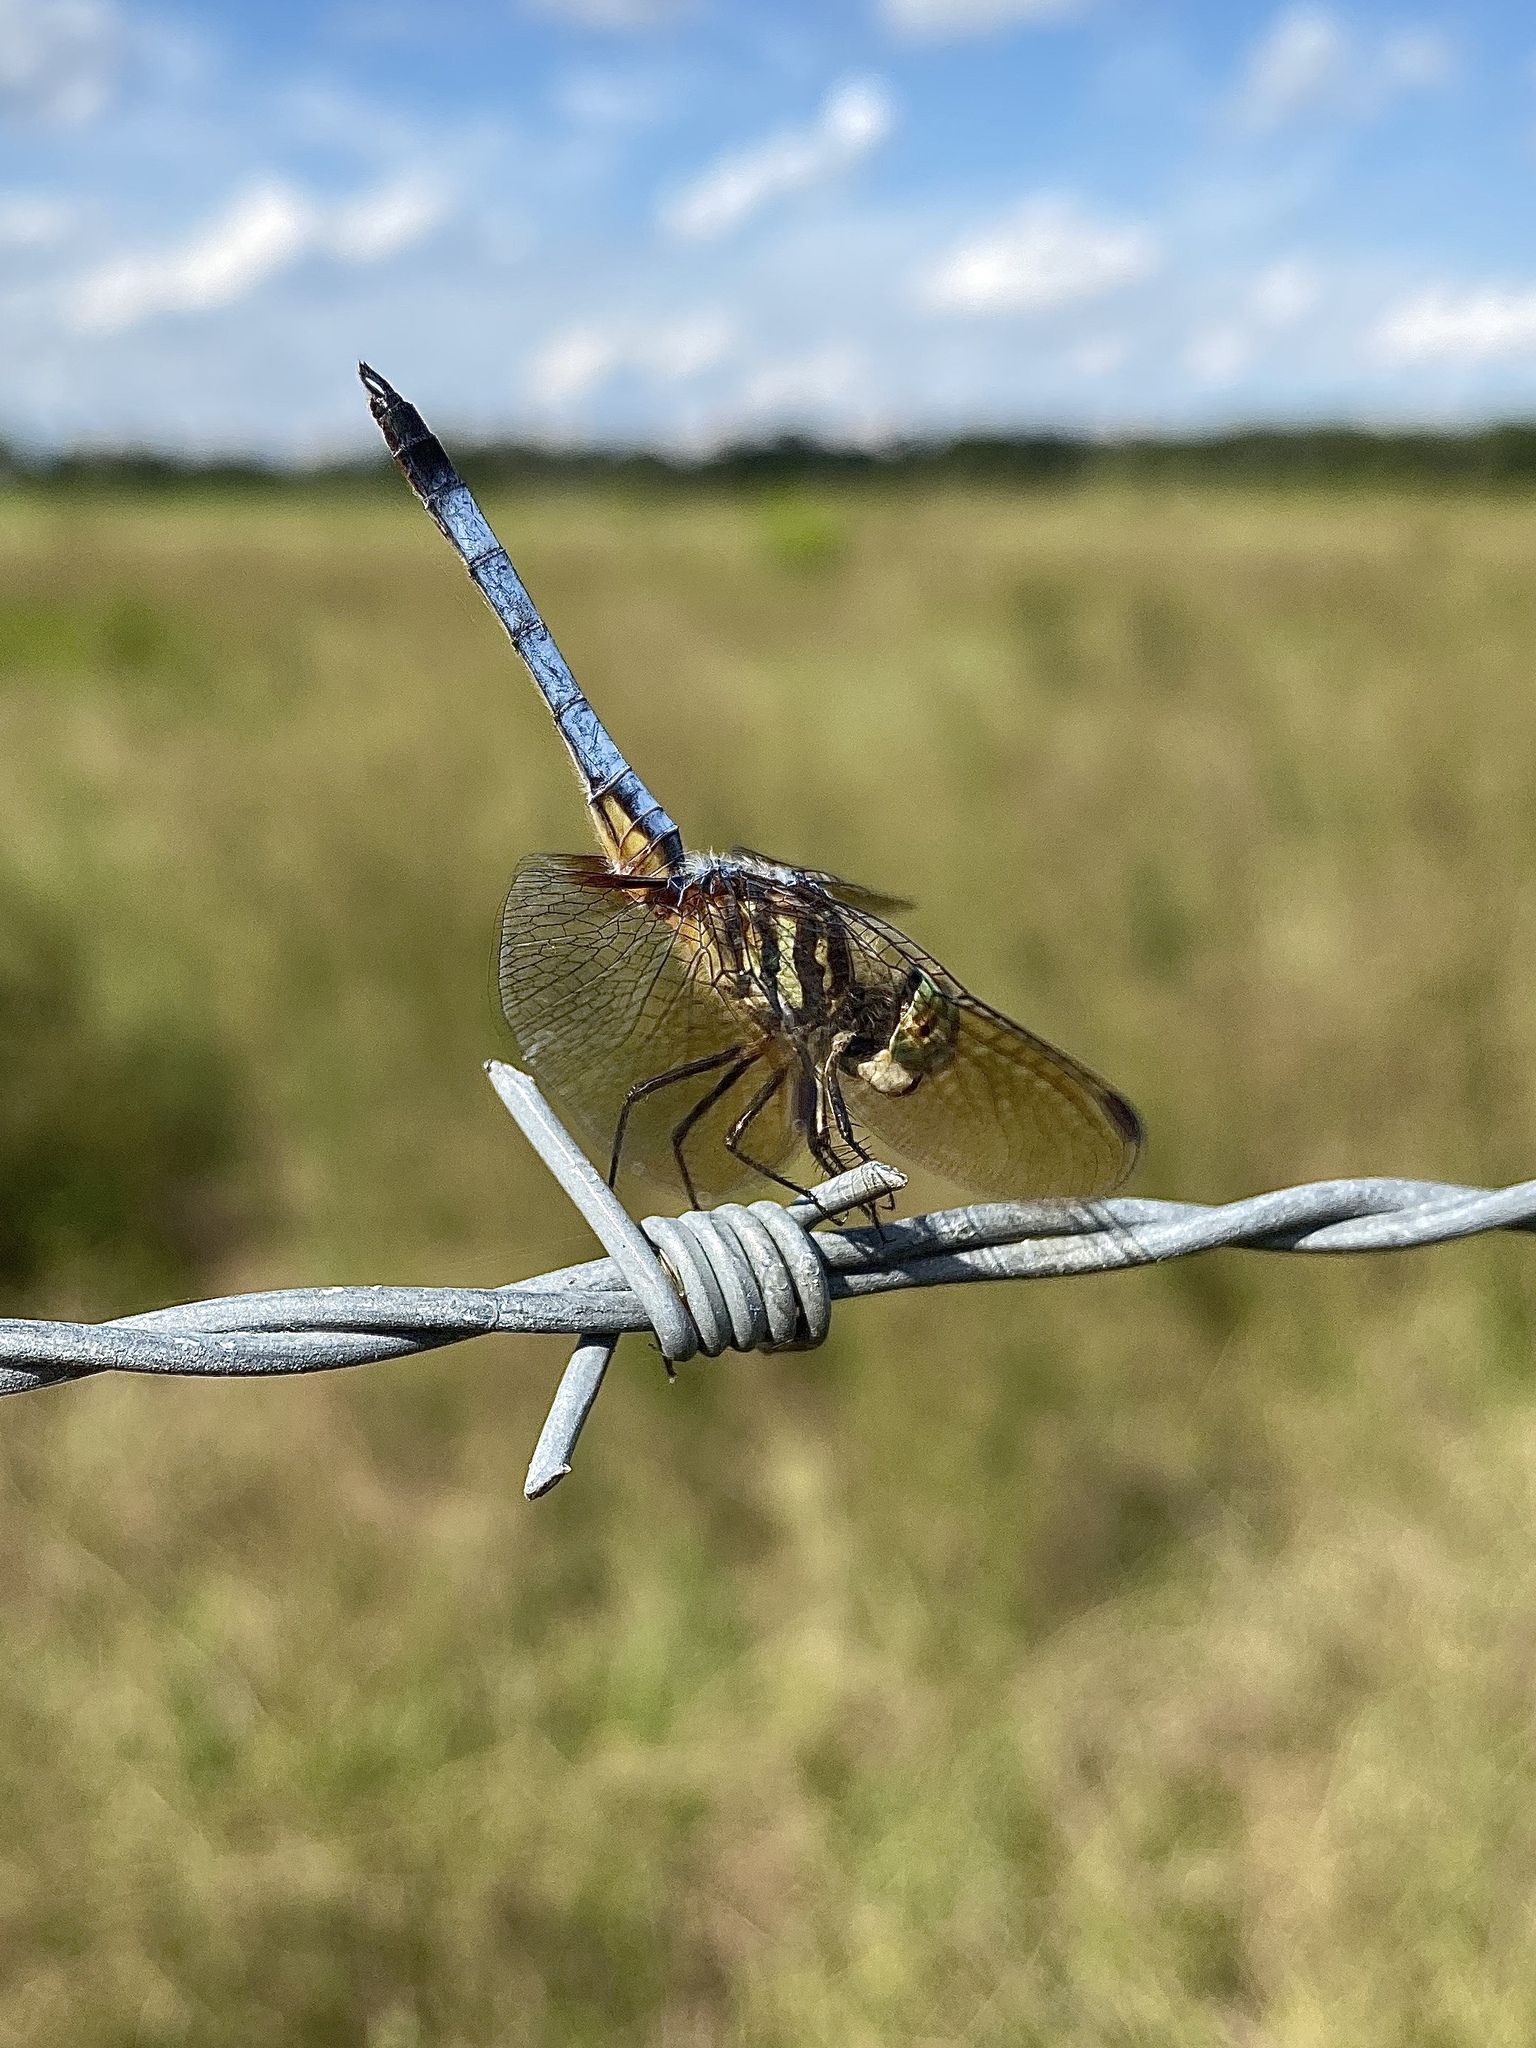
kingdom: Animalia
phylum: Arthropoda
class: Insecta
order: Odonata
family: Libellulidae
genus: Pachydiplax
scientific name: Pachydiplax longipennis
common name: Blue dasher
